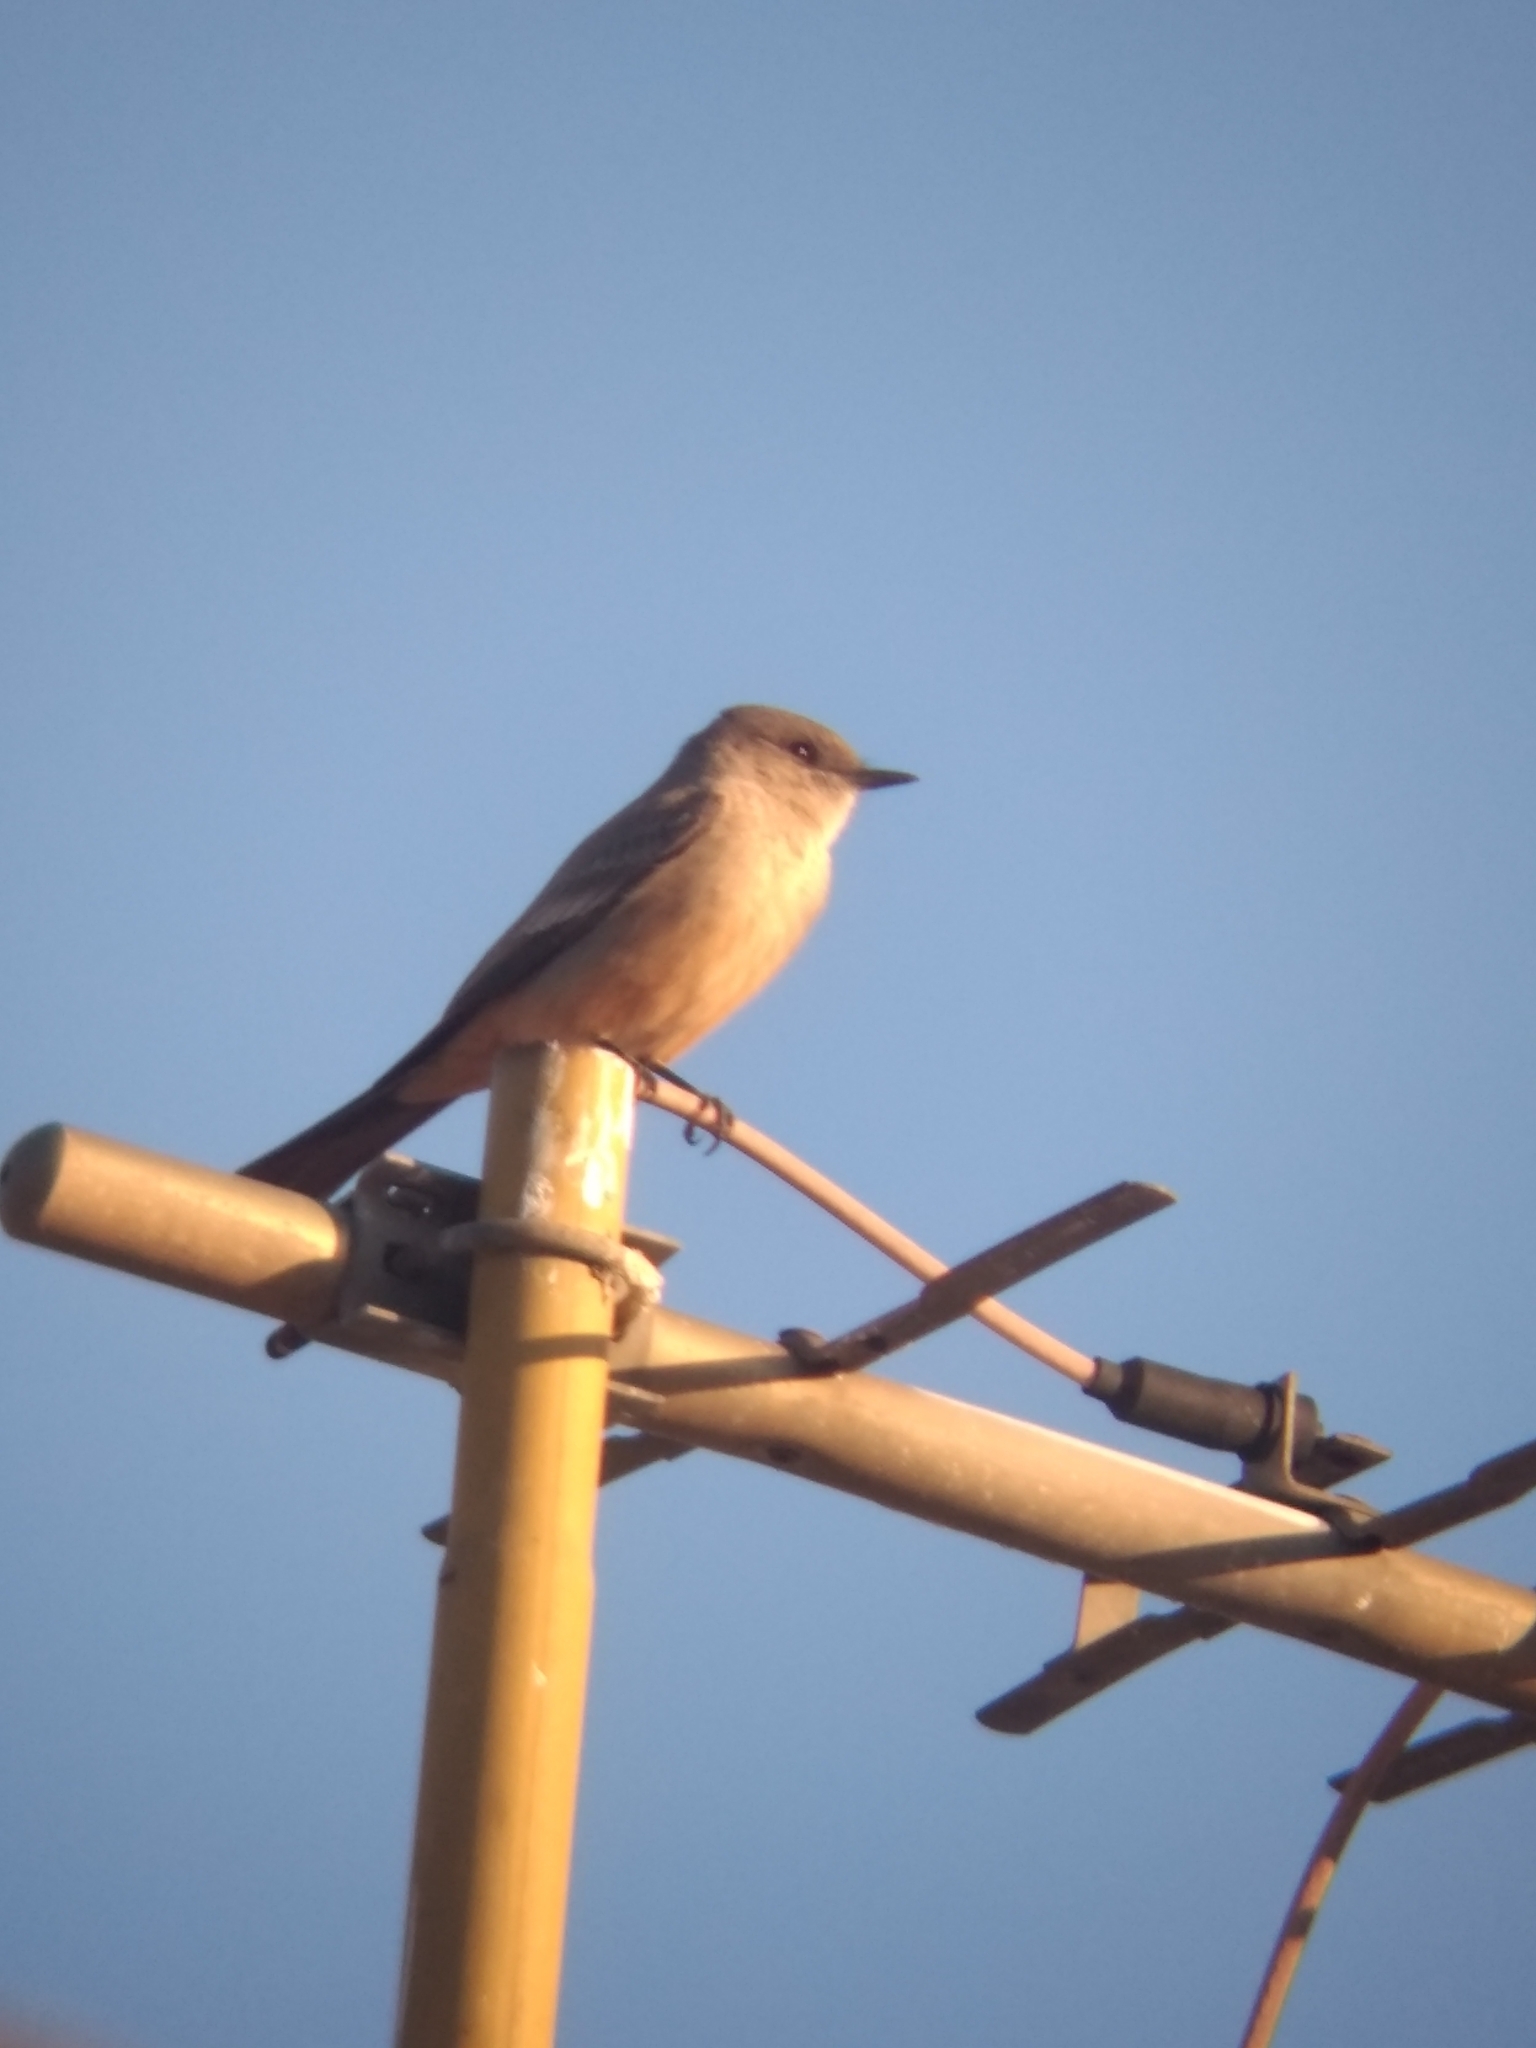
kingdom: Animalia
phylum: Chordata
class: Aves
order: Passeriformes
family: Tyrannidae
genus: Sayornis
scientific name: Sayornis saya
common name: Say's phoebe
